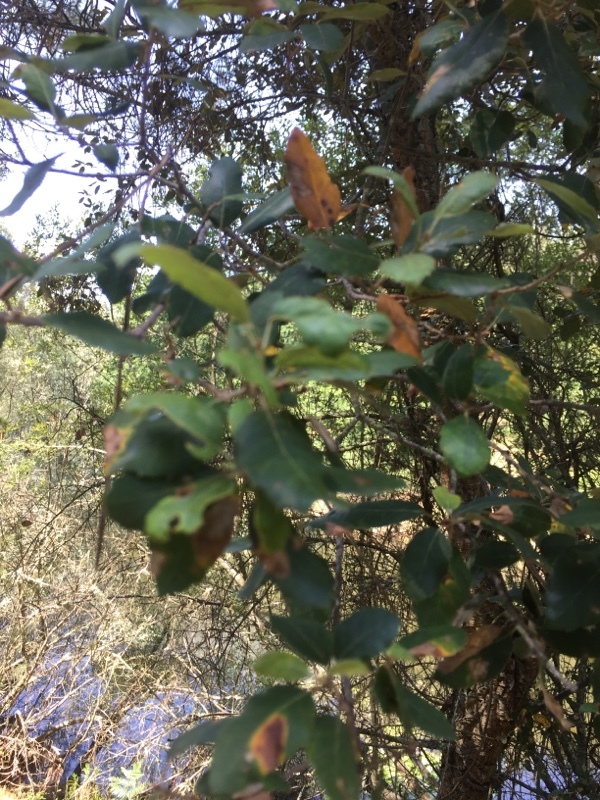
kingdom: Plantae
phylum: Tracheophyta
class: Magnoliopsida
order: Fagales
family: Fagaceae
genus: Quercus
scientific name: Quercus suber
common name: Cork oak
